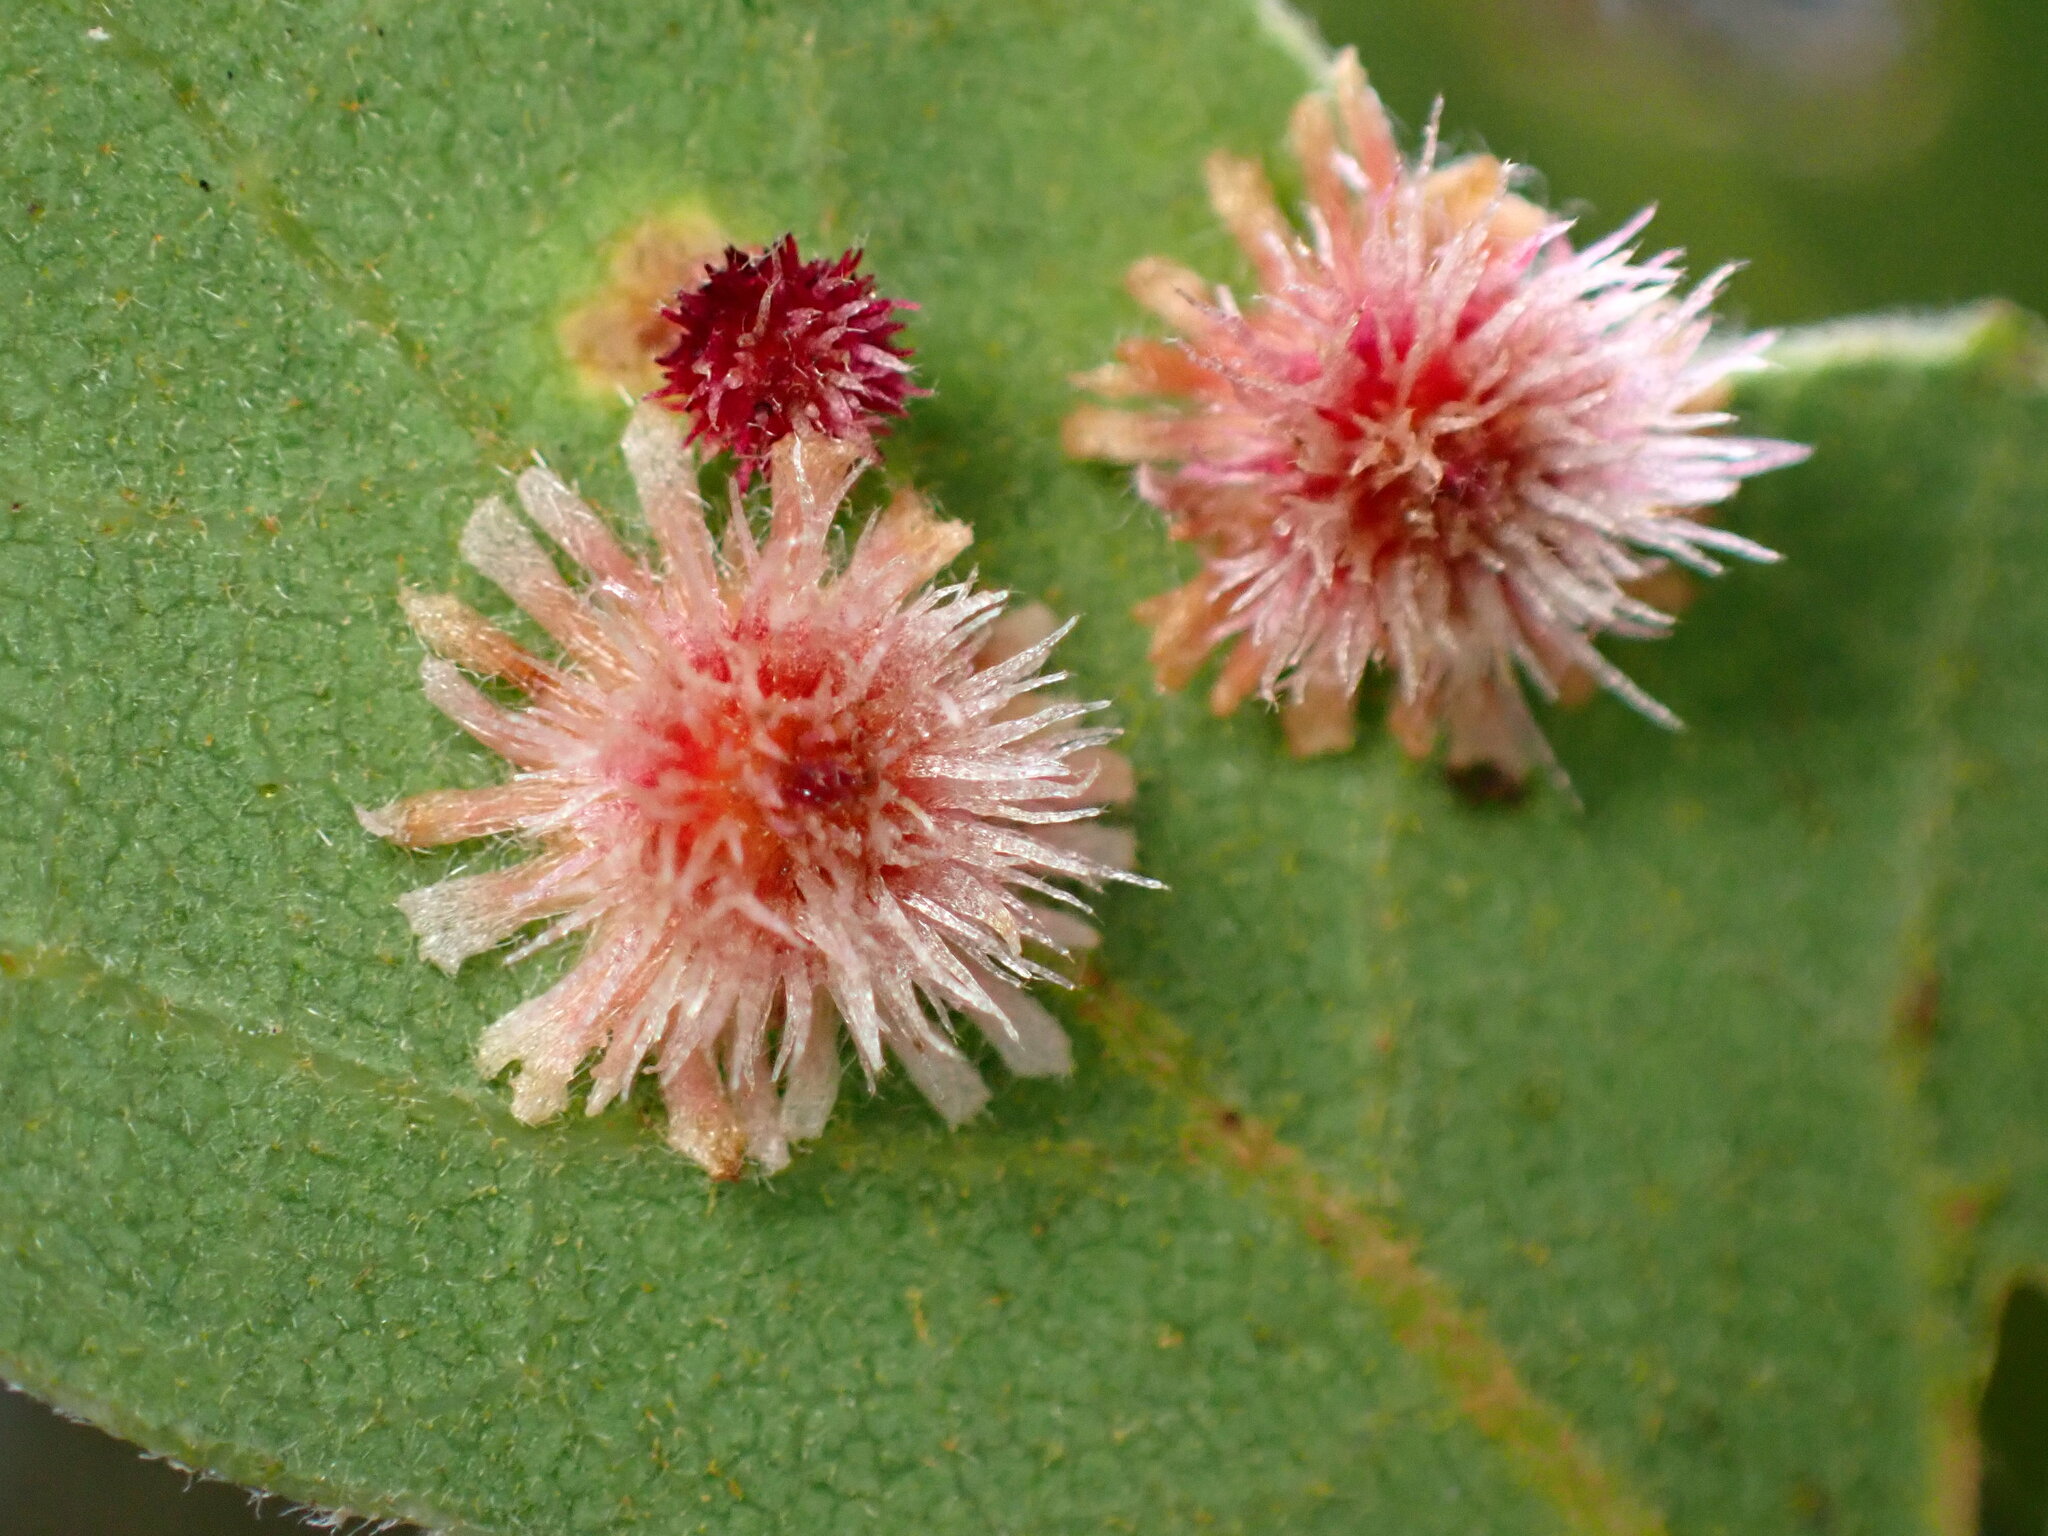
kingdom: Animalia
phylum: Arthropoda
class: Insecta
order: Hymenoptera
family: Cynipidae
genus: Andricus
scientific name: Andricus
